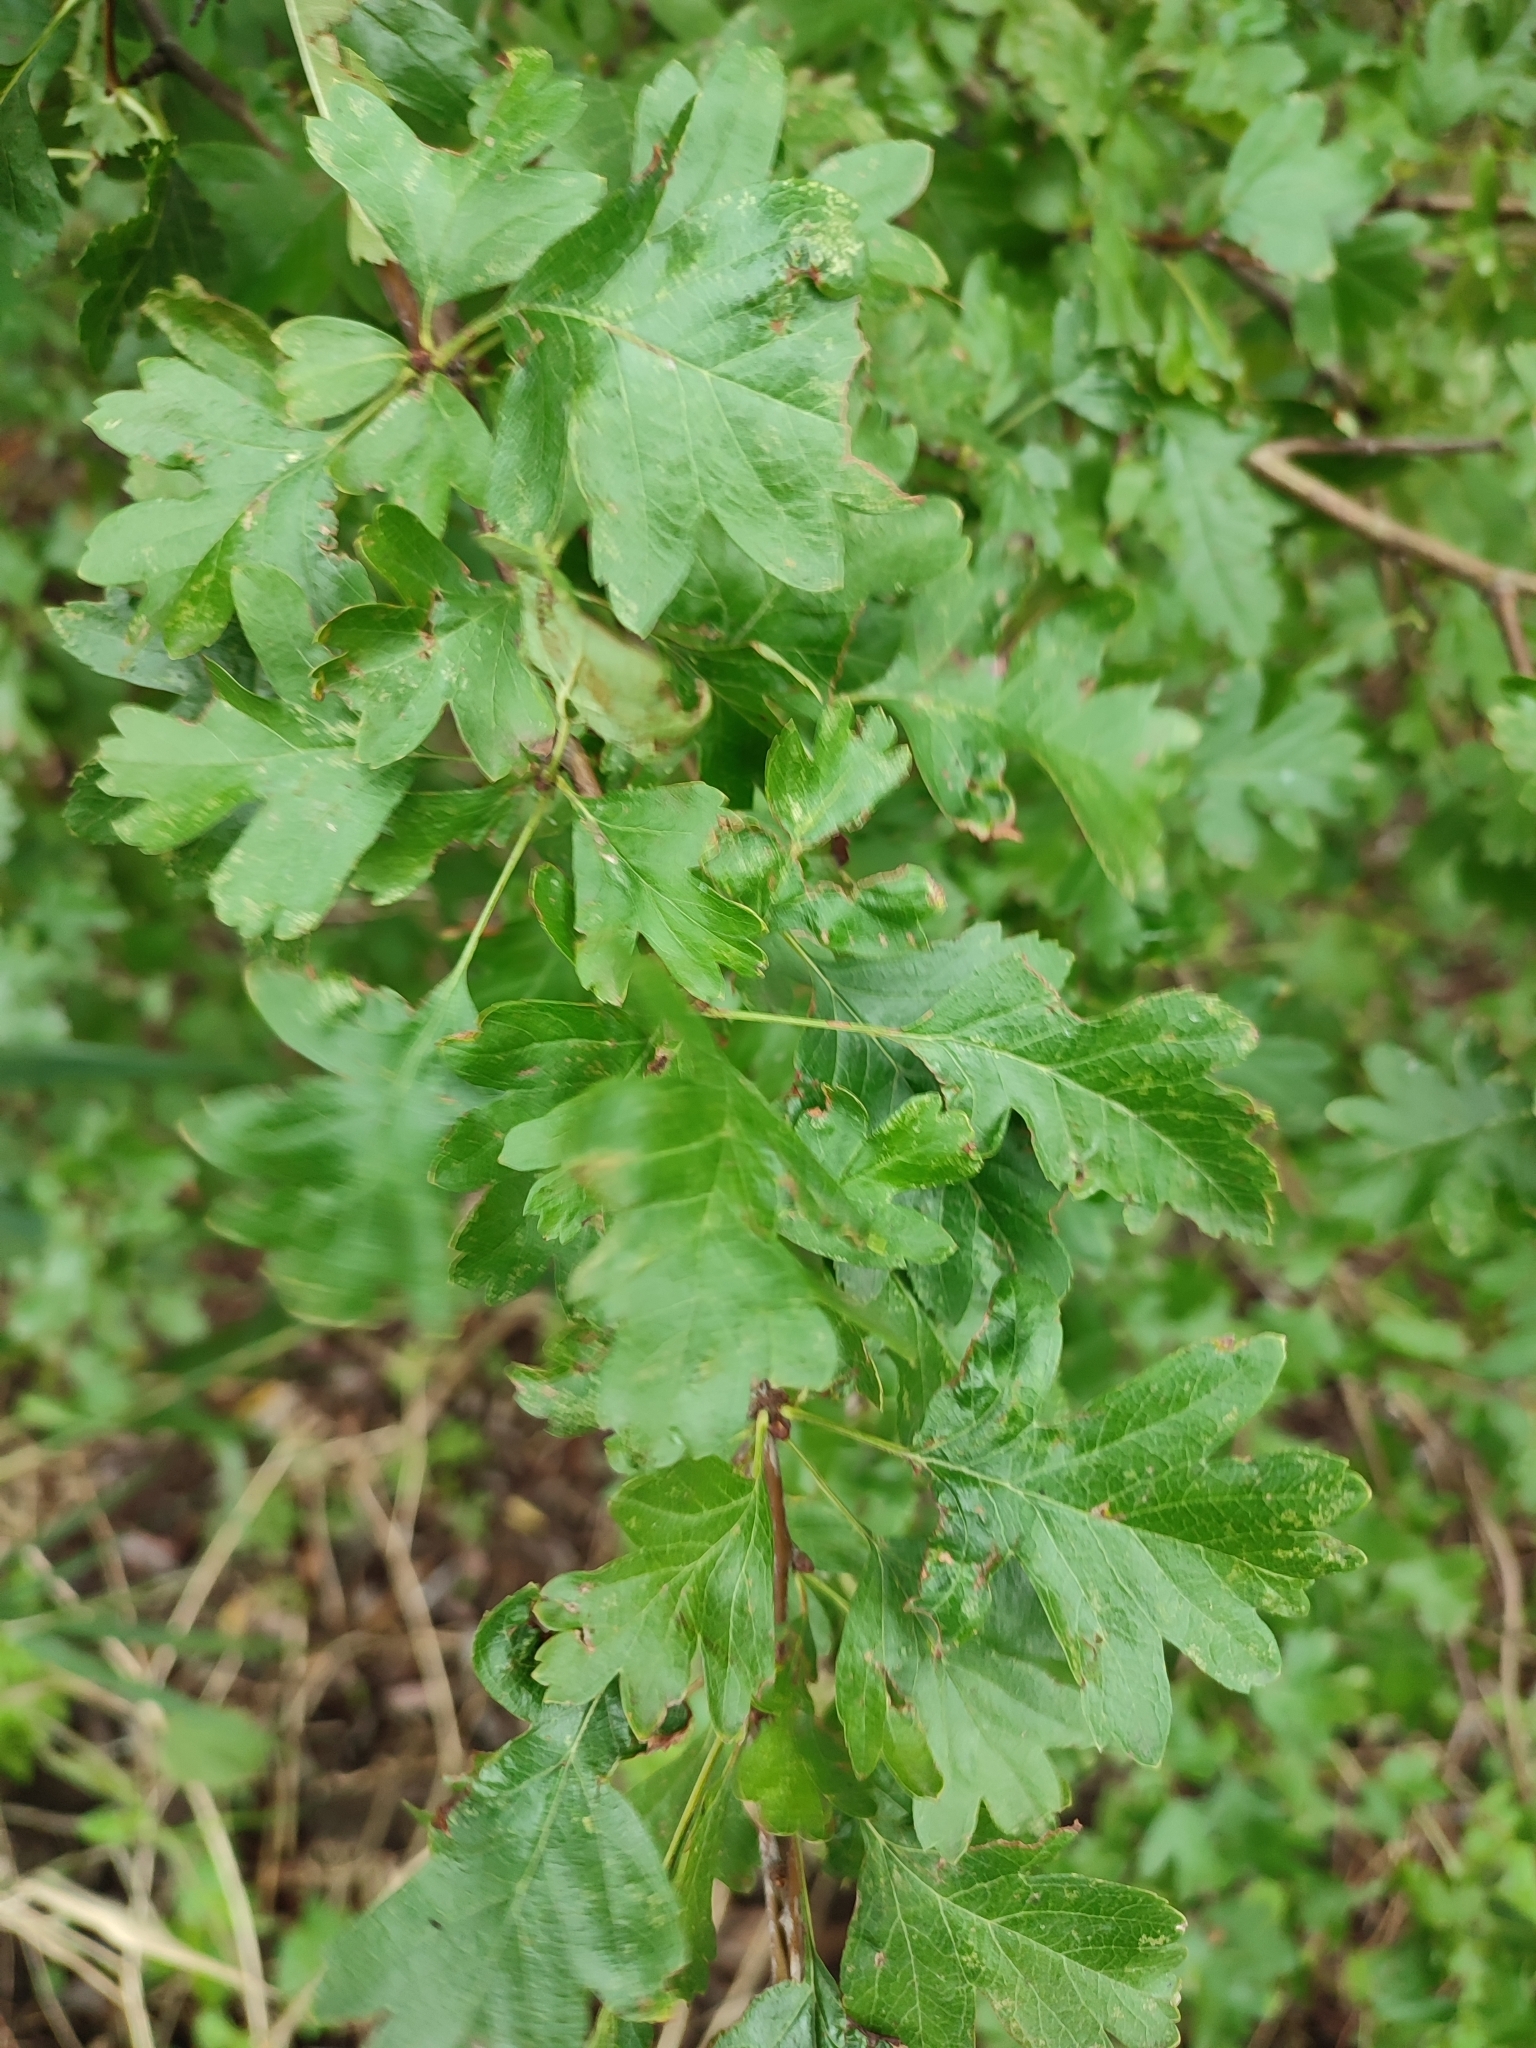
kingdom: Plantae
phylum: Tracheophyta
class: Magnoliopsida
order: Rosales
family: Rosaceae
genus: Crataegus
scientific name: Crataegus monogyna
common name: Hawthorn
